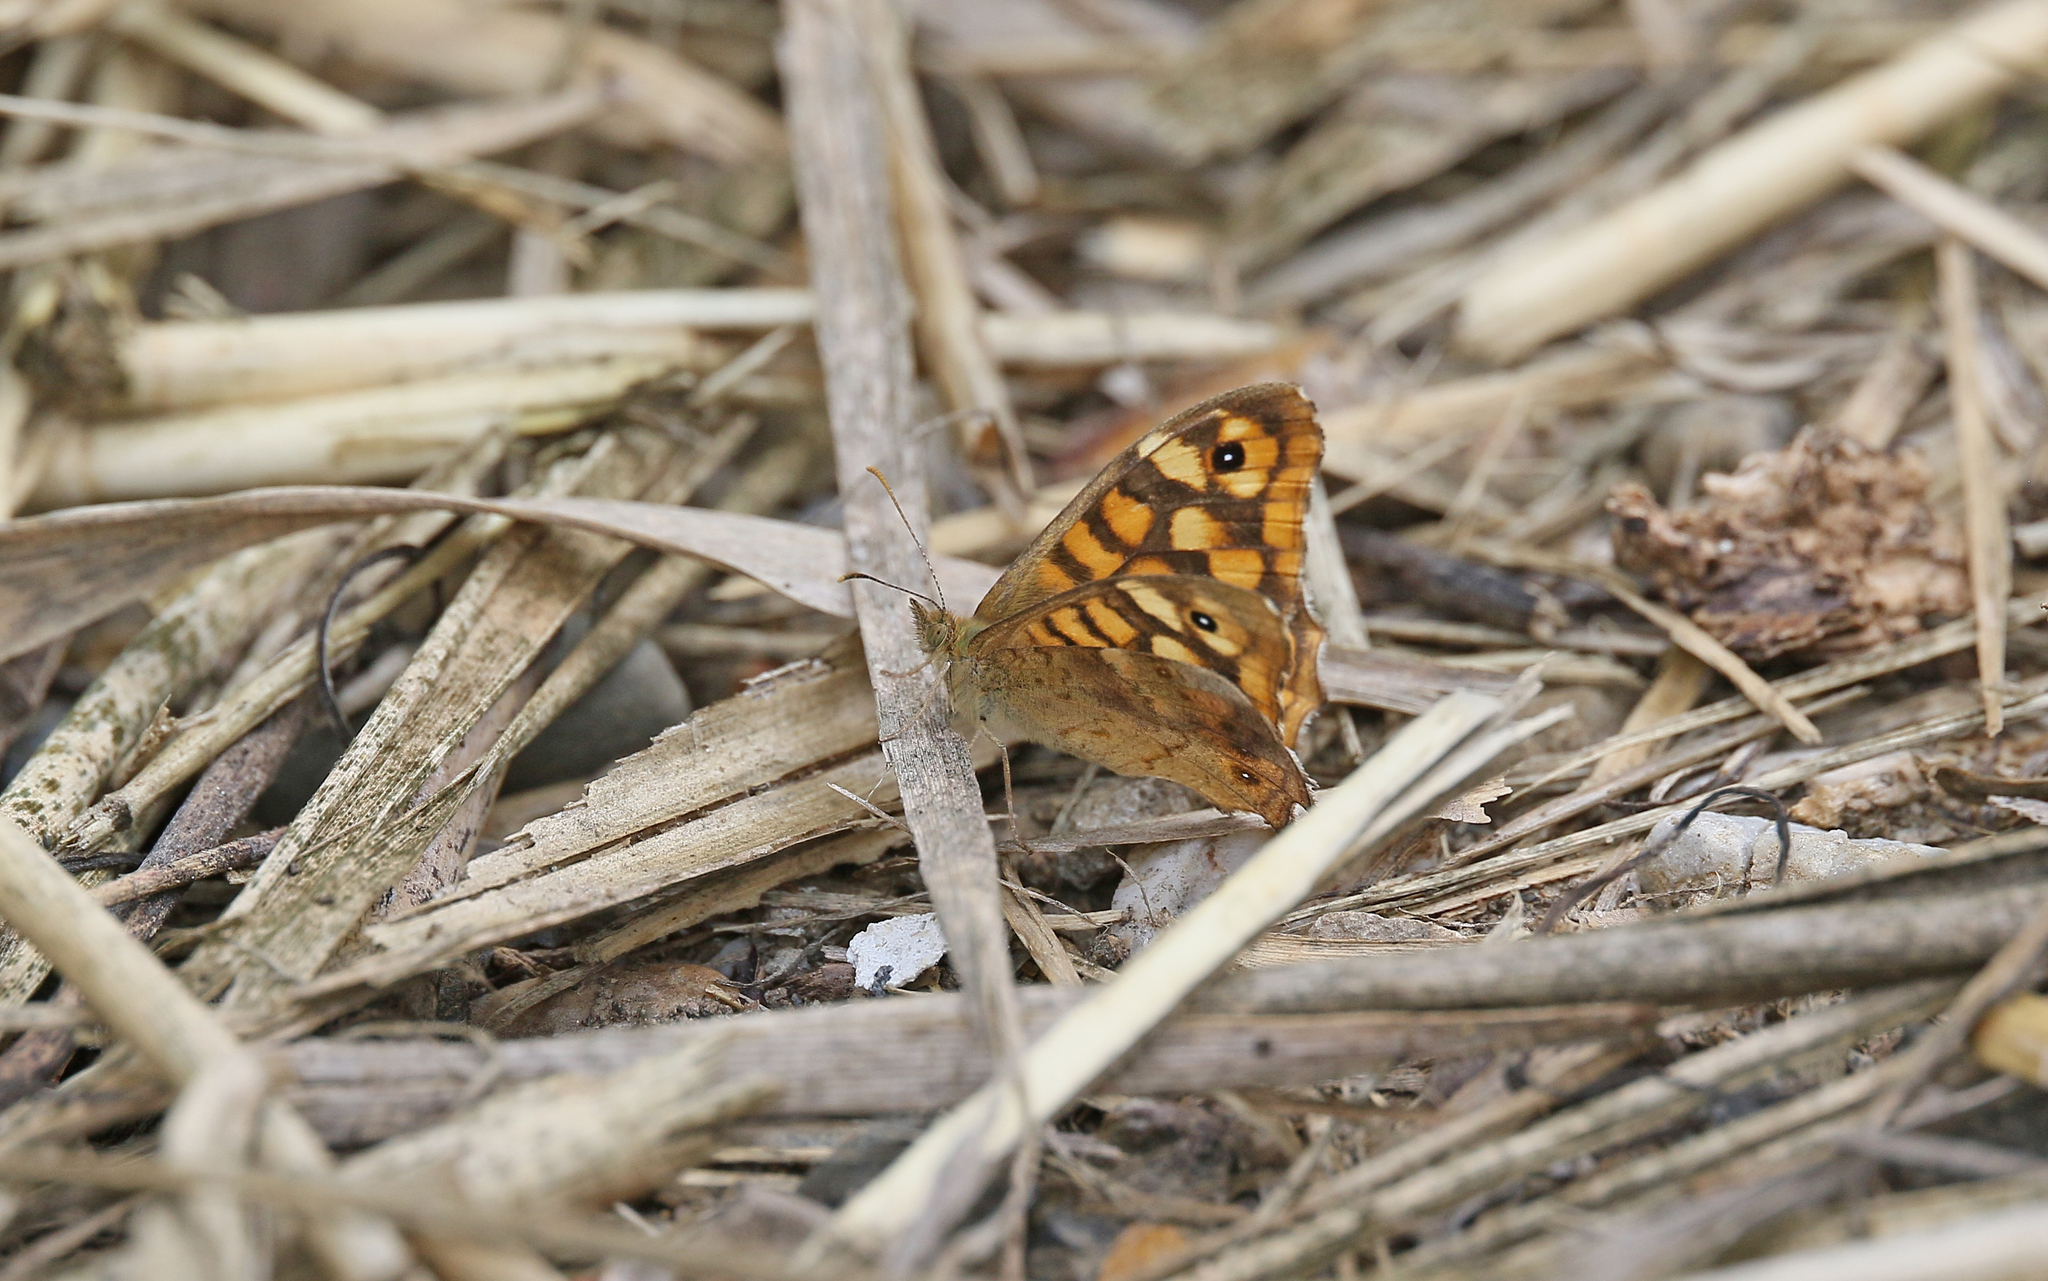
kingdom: Animalia
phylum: Arthropoda
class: Insecta
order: Lepidoptera
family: Nymphalidae
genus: Pararge
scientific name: Pararge aegeria
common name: Speckled wood
